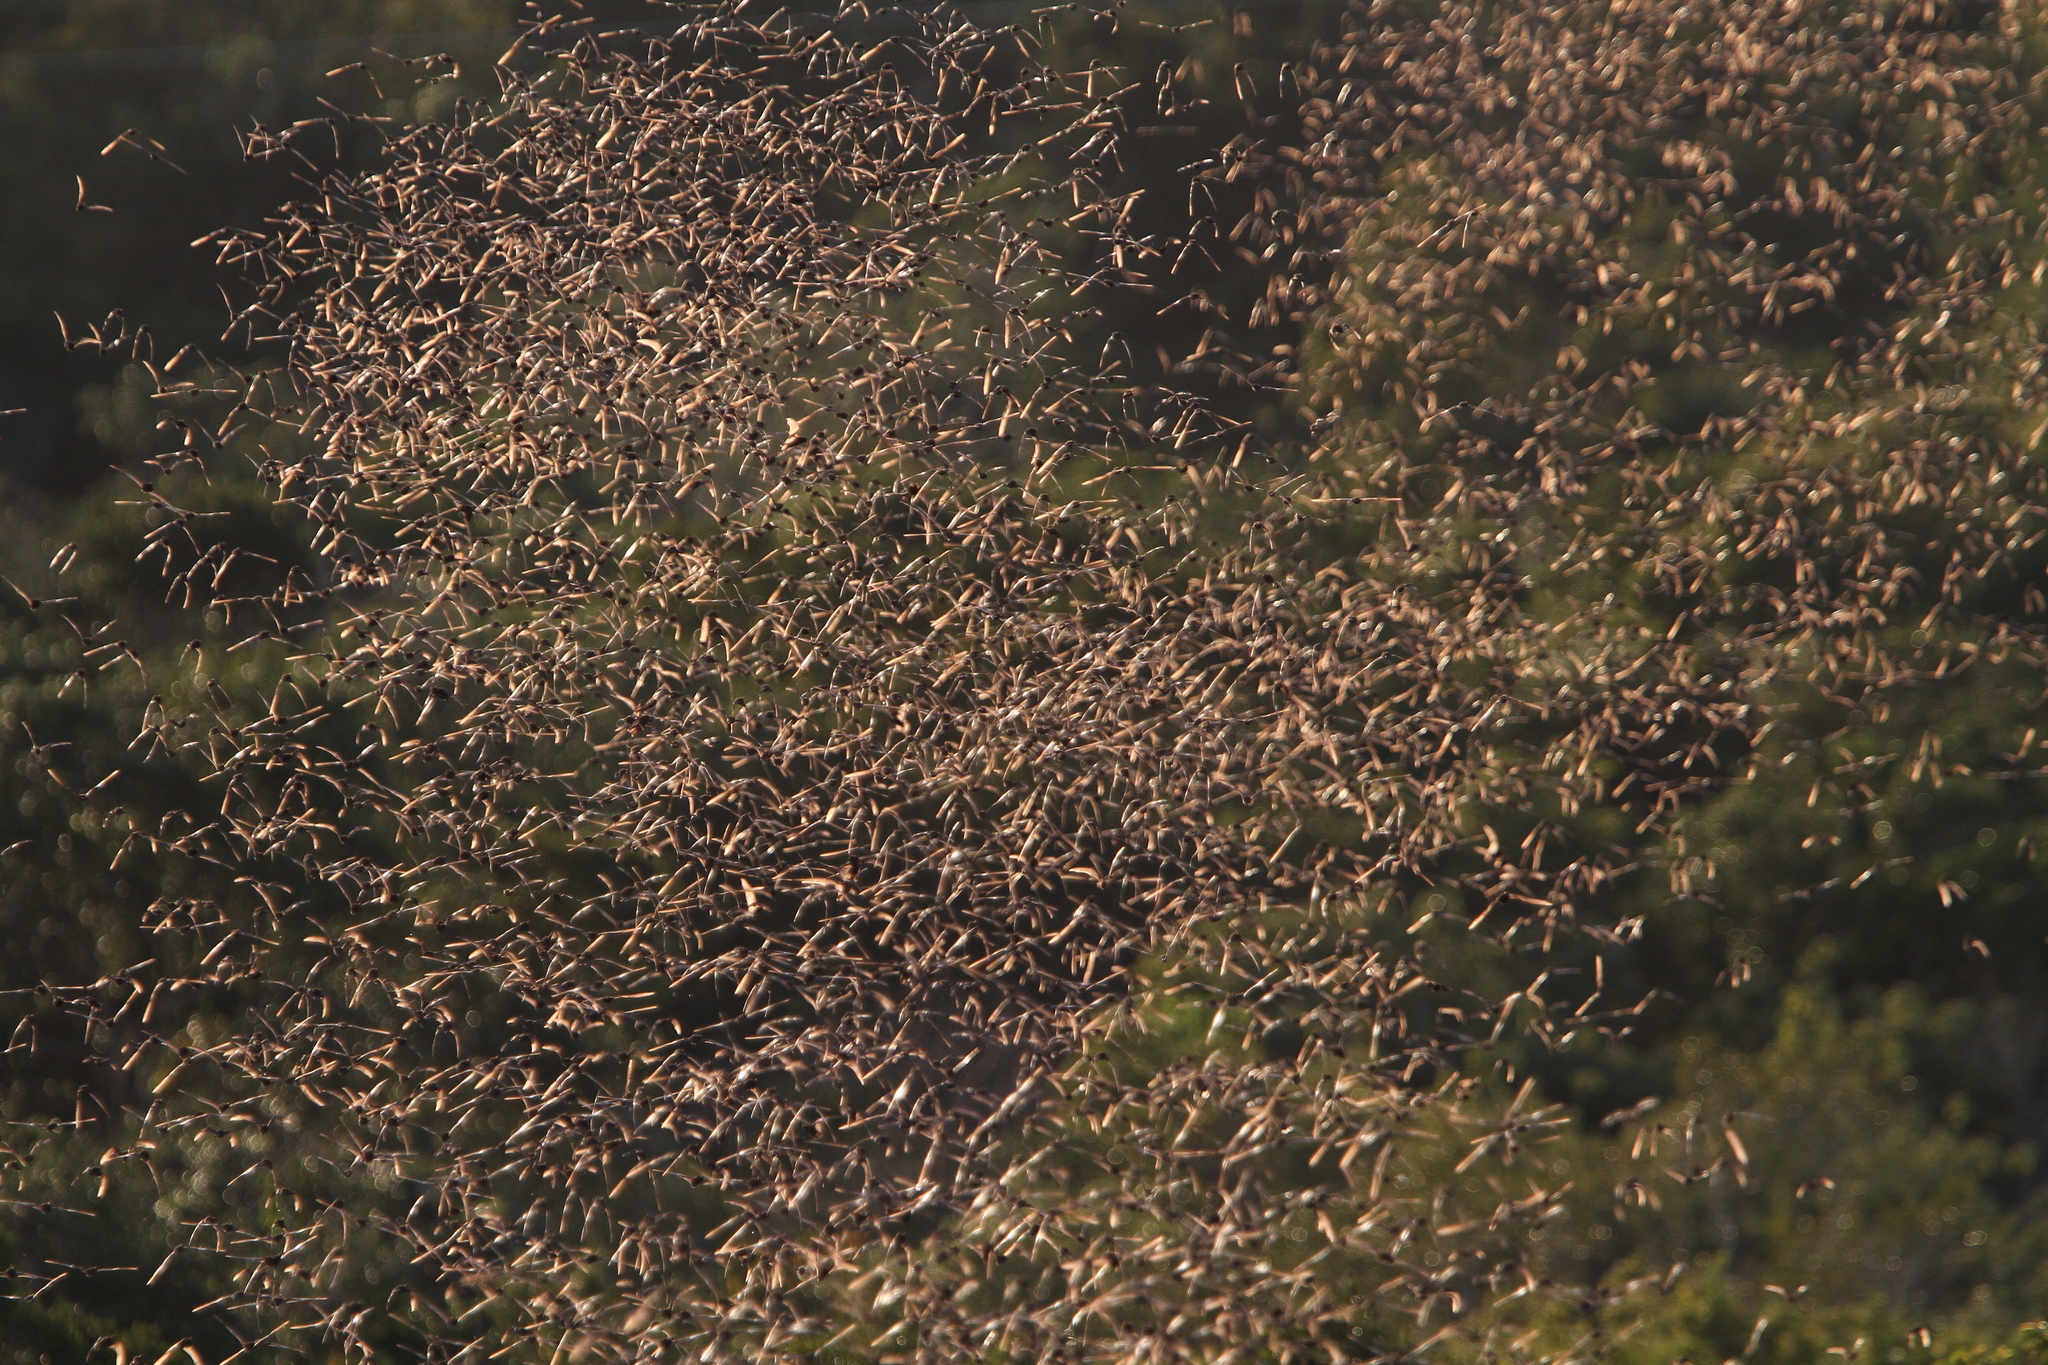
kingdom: Animalia
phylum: Chordata
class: Mammalia
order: Chiroptera
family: Molossidae
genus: Nyctinomops
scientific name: Nyctinomops laticaudatus
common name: Broad-eared free-tailed bat
